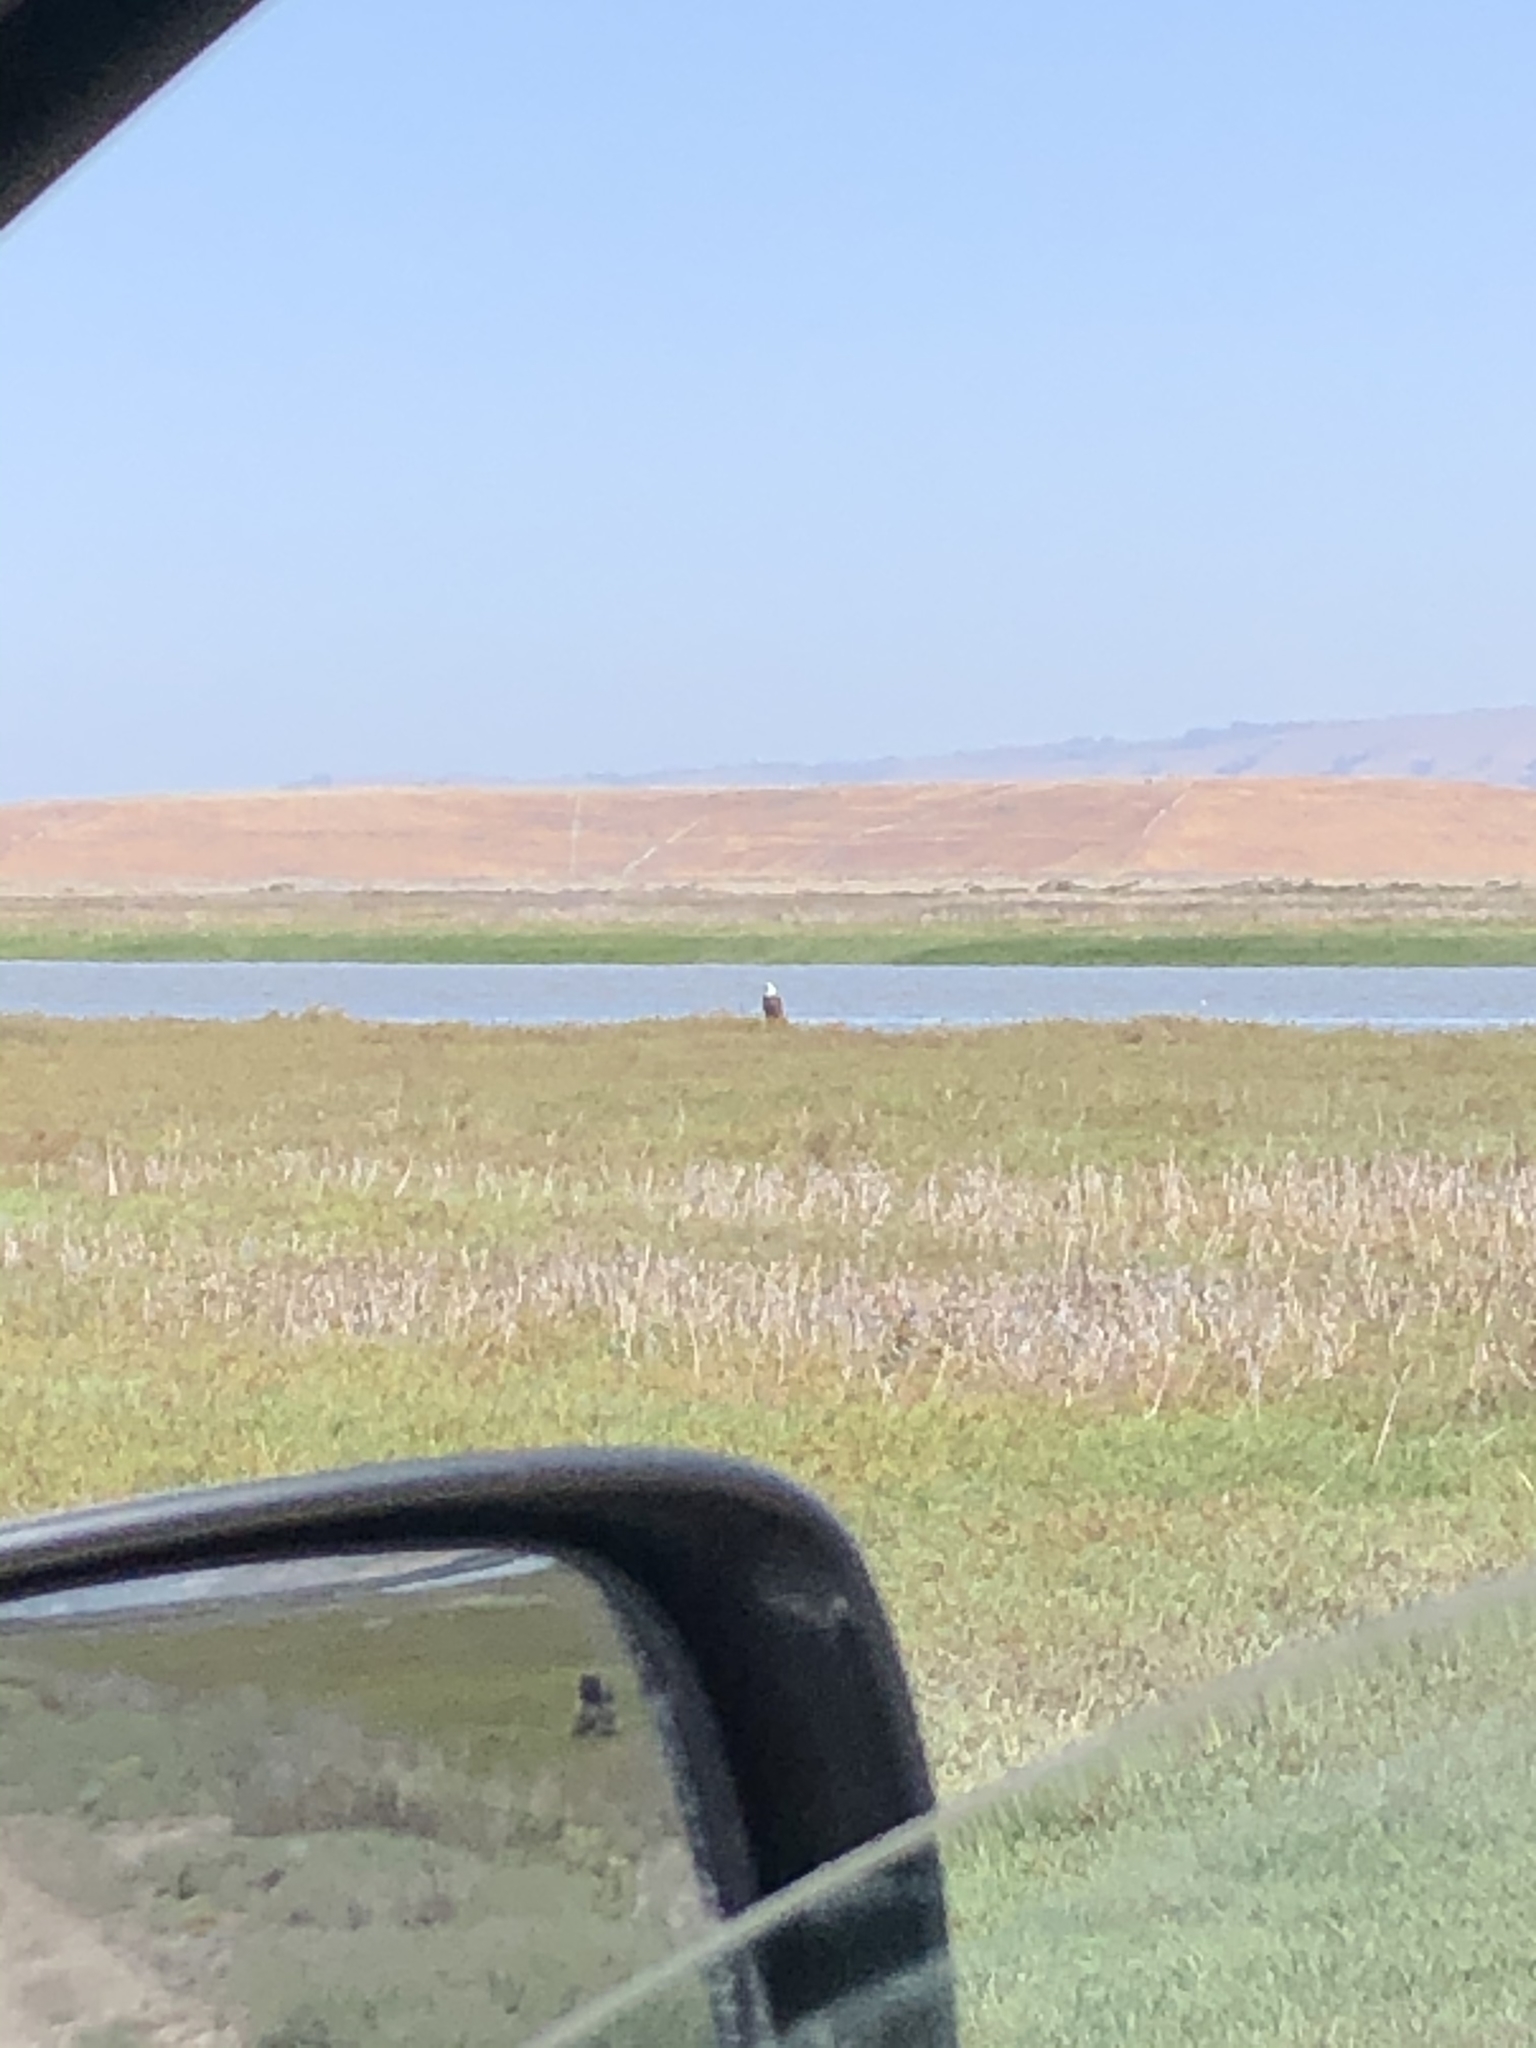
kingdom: Animalia
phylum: Chordata
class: Aves
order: Accipitriformes
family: Accipitridae
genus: Haliaeetus
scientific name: Haliaeetus leucocephalus
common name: Bald eagle
